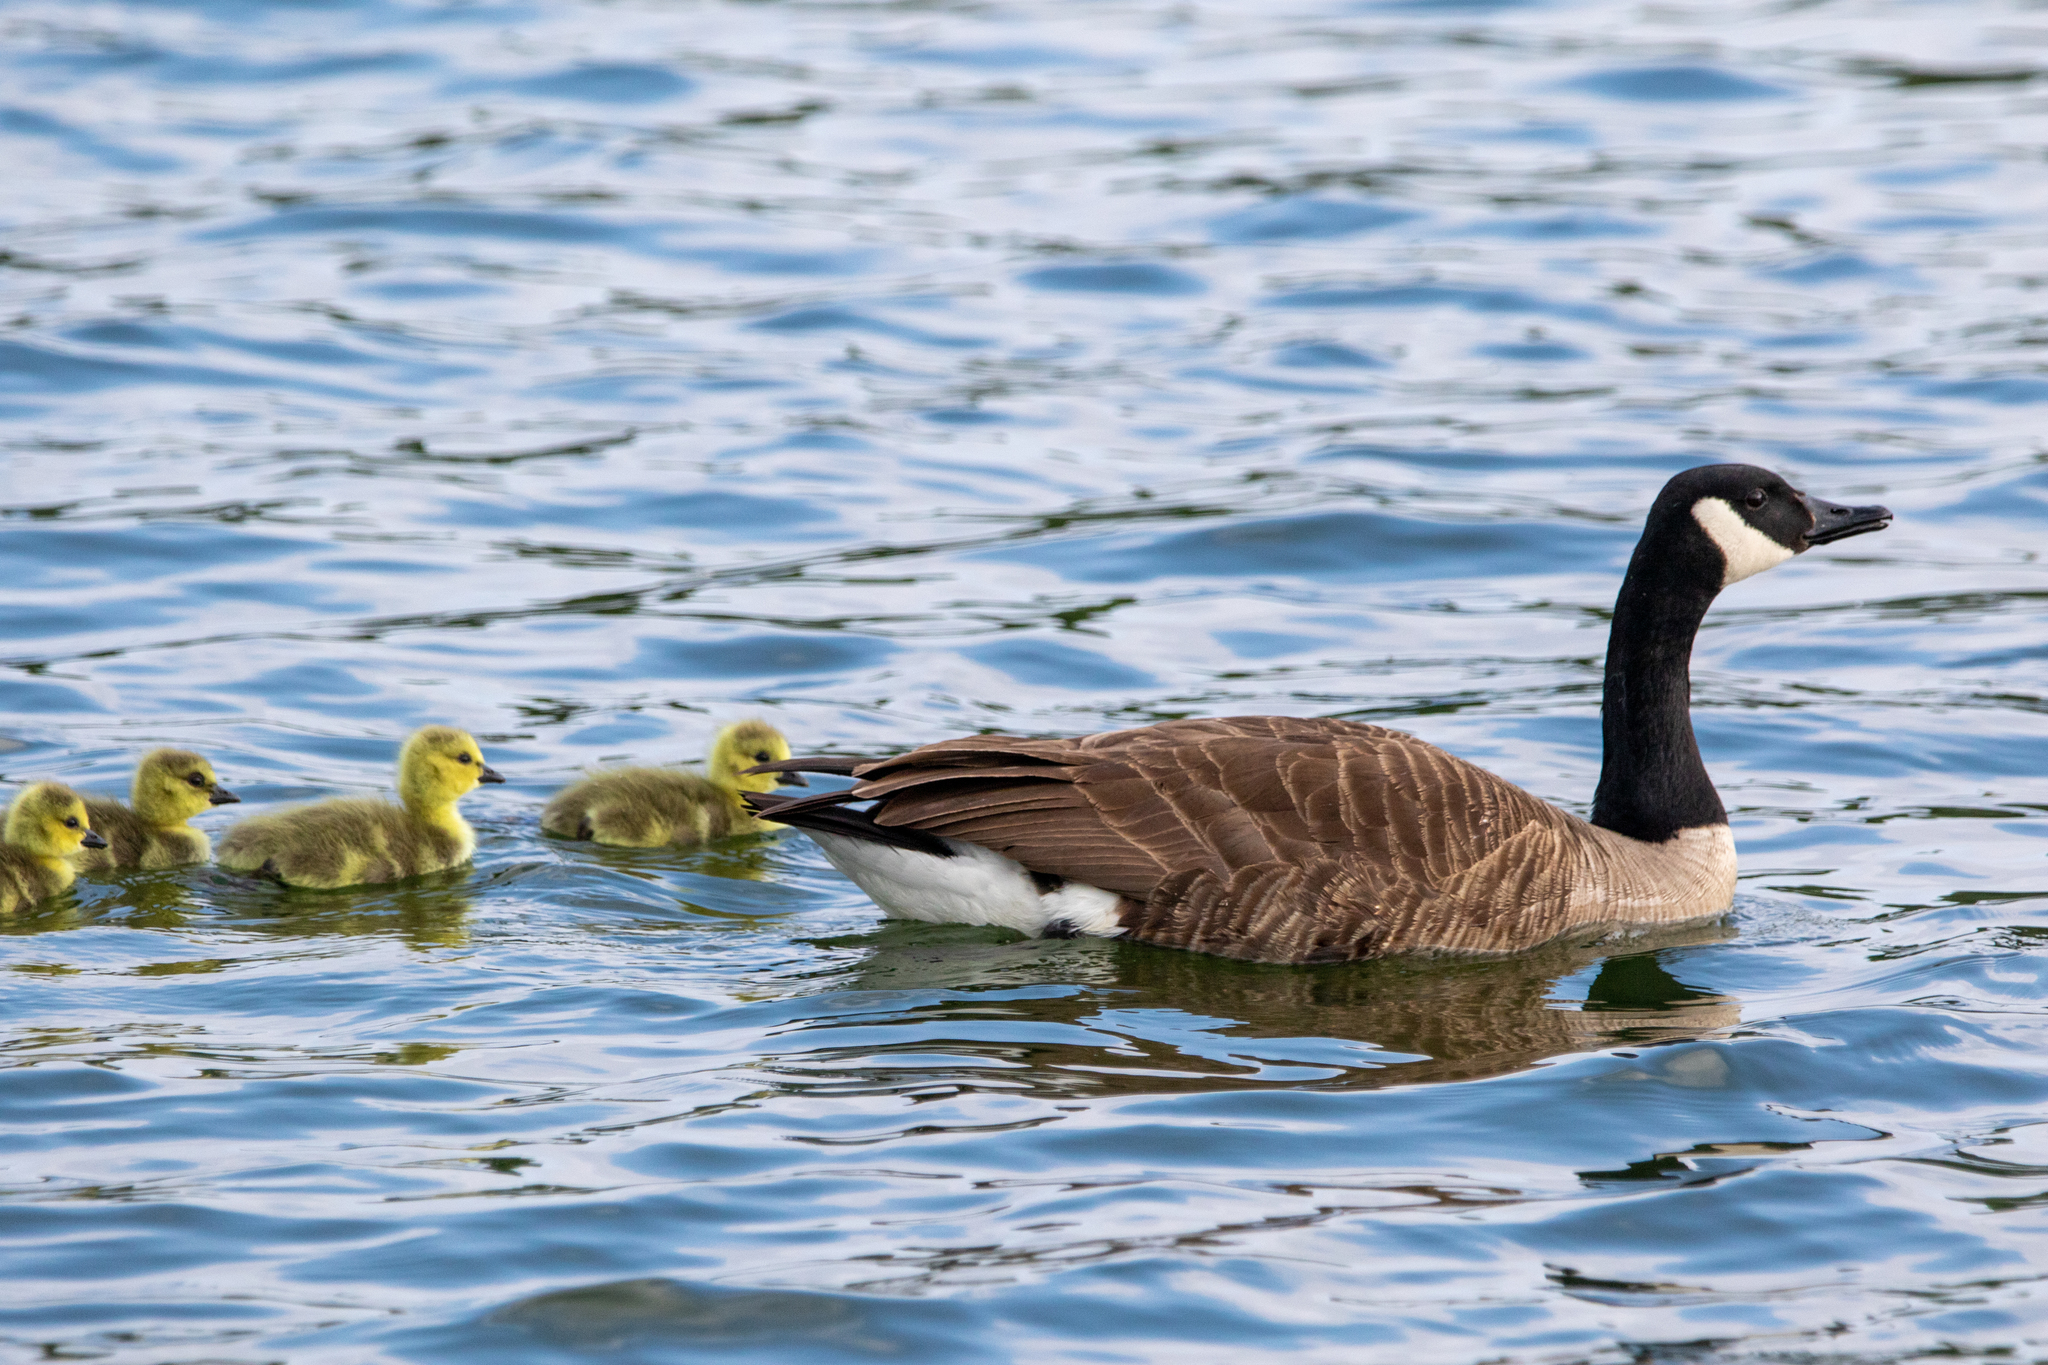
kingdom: Animalia
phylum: Chordata
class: Aves
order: Anseriformes
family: Anatidae
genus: Branta
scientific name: Branta canadensis
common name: Canada goose
